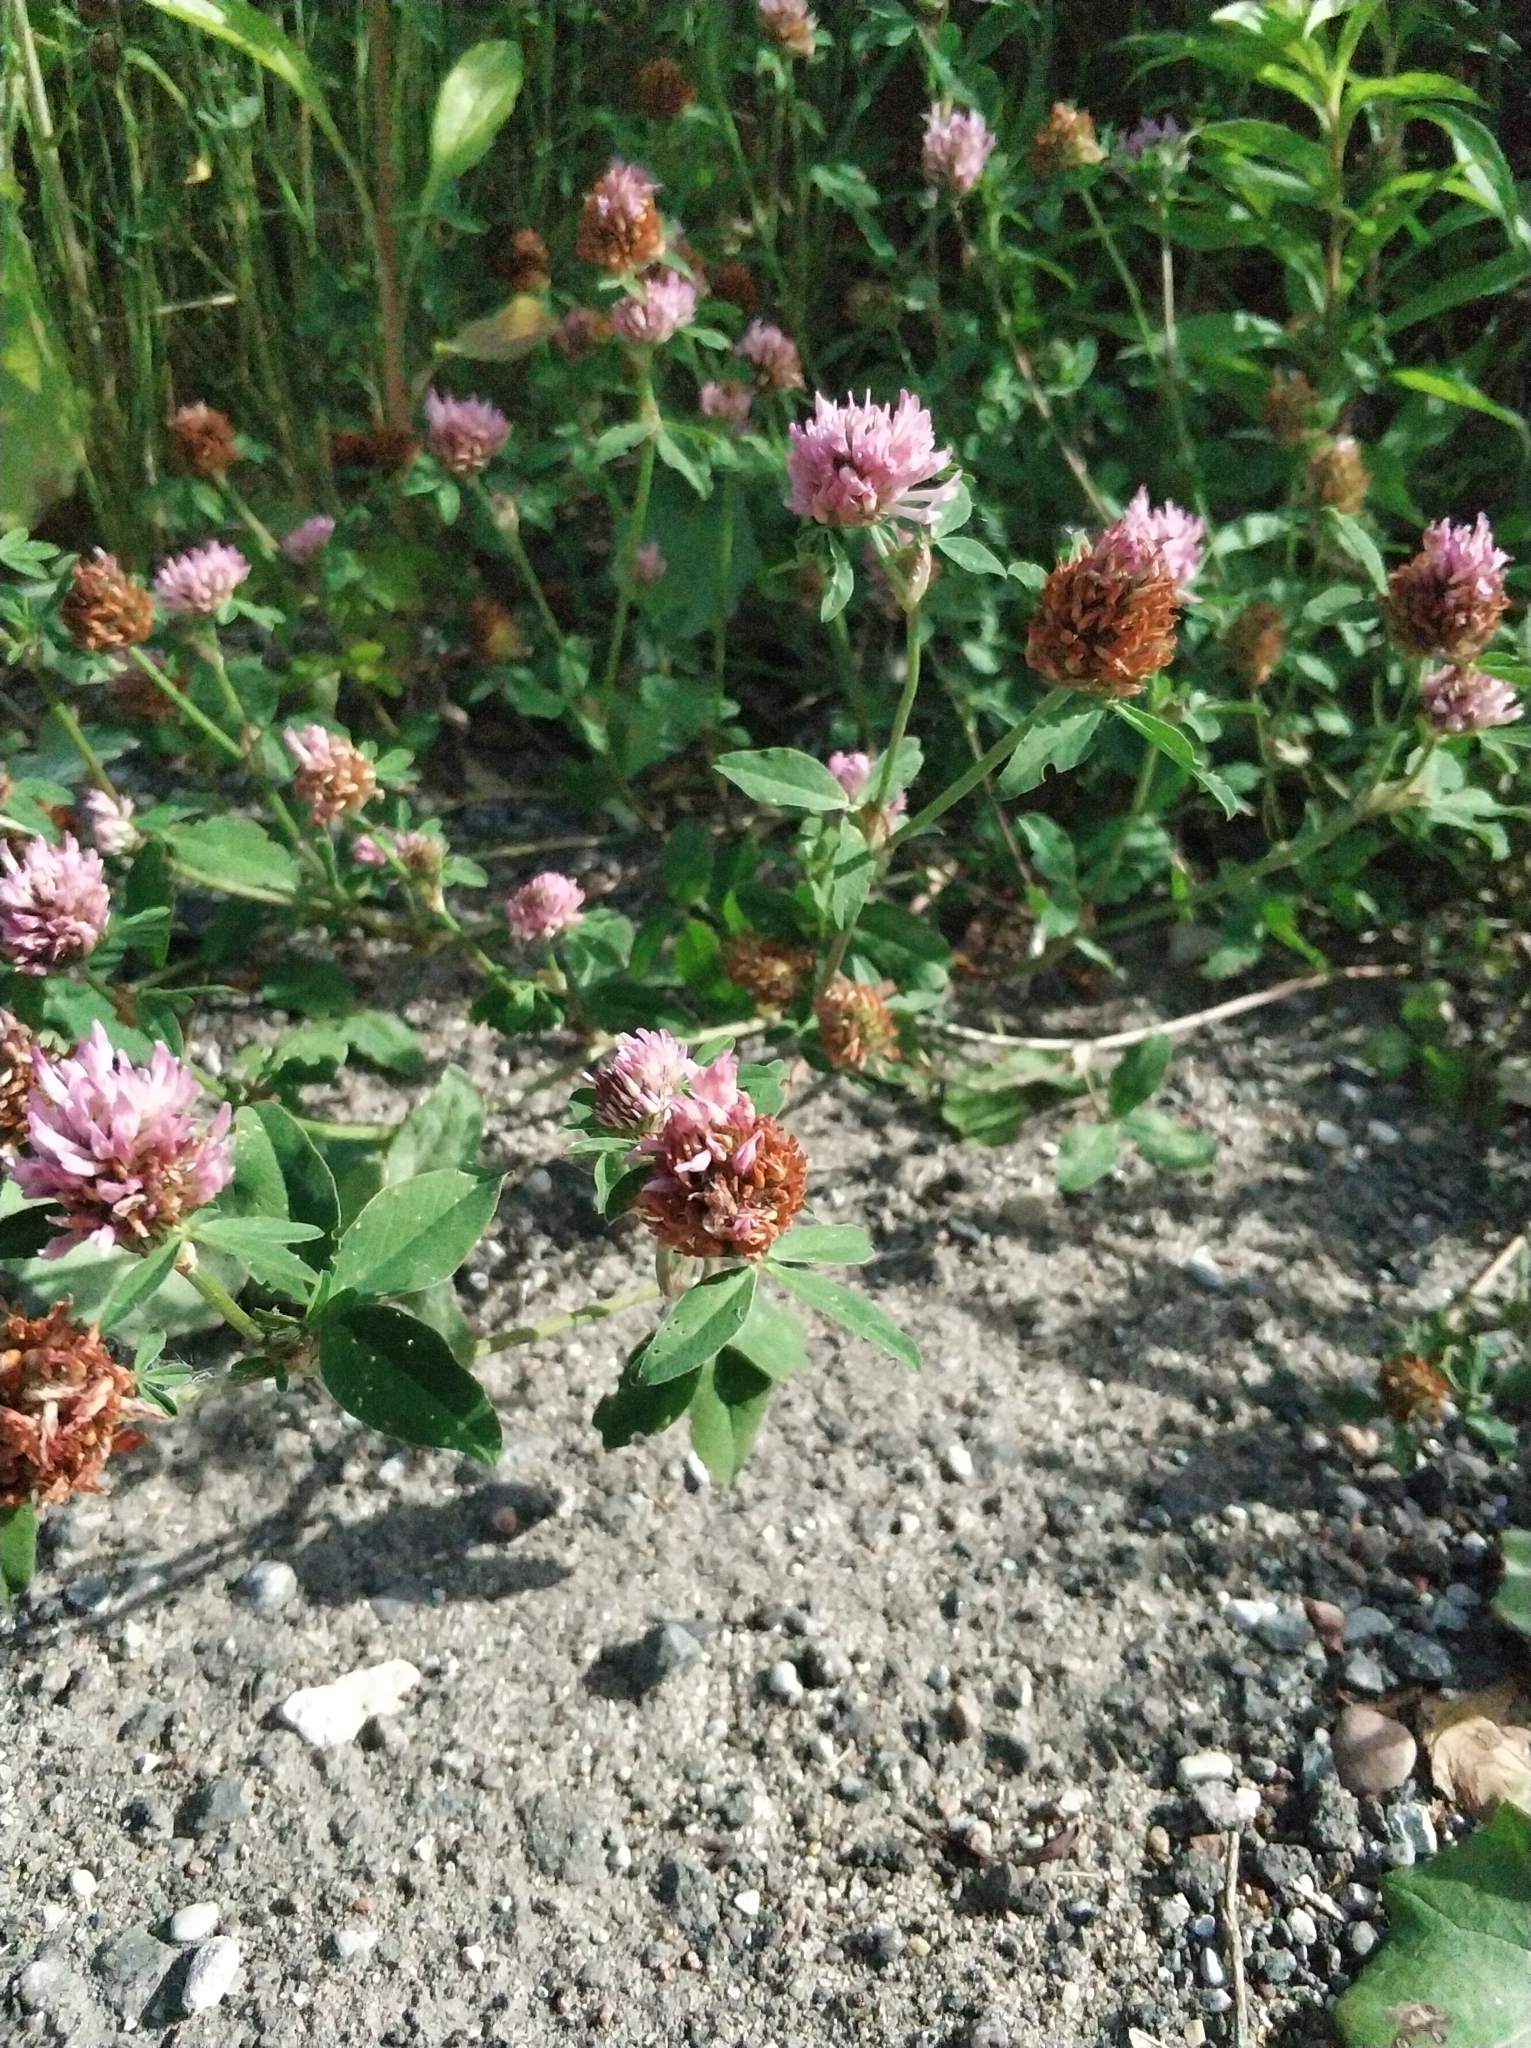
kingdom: Plantae
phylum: Tracheophyta
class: Magnoliopsida
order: Fabales
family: Fabaceae
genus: Trifolium
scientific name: Trifolium pratense
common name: Red clover
